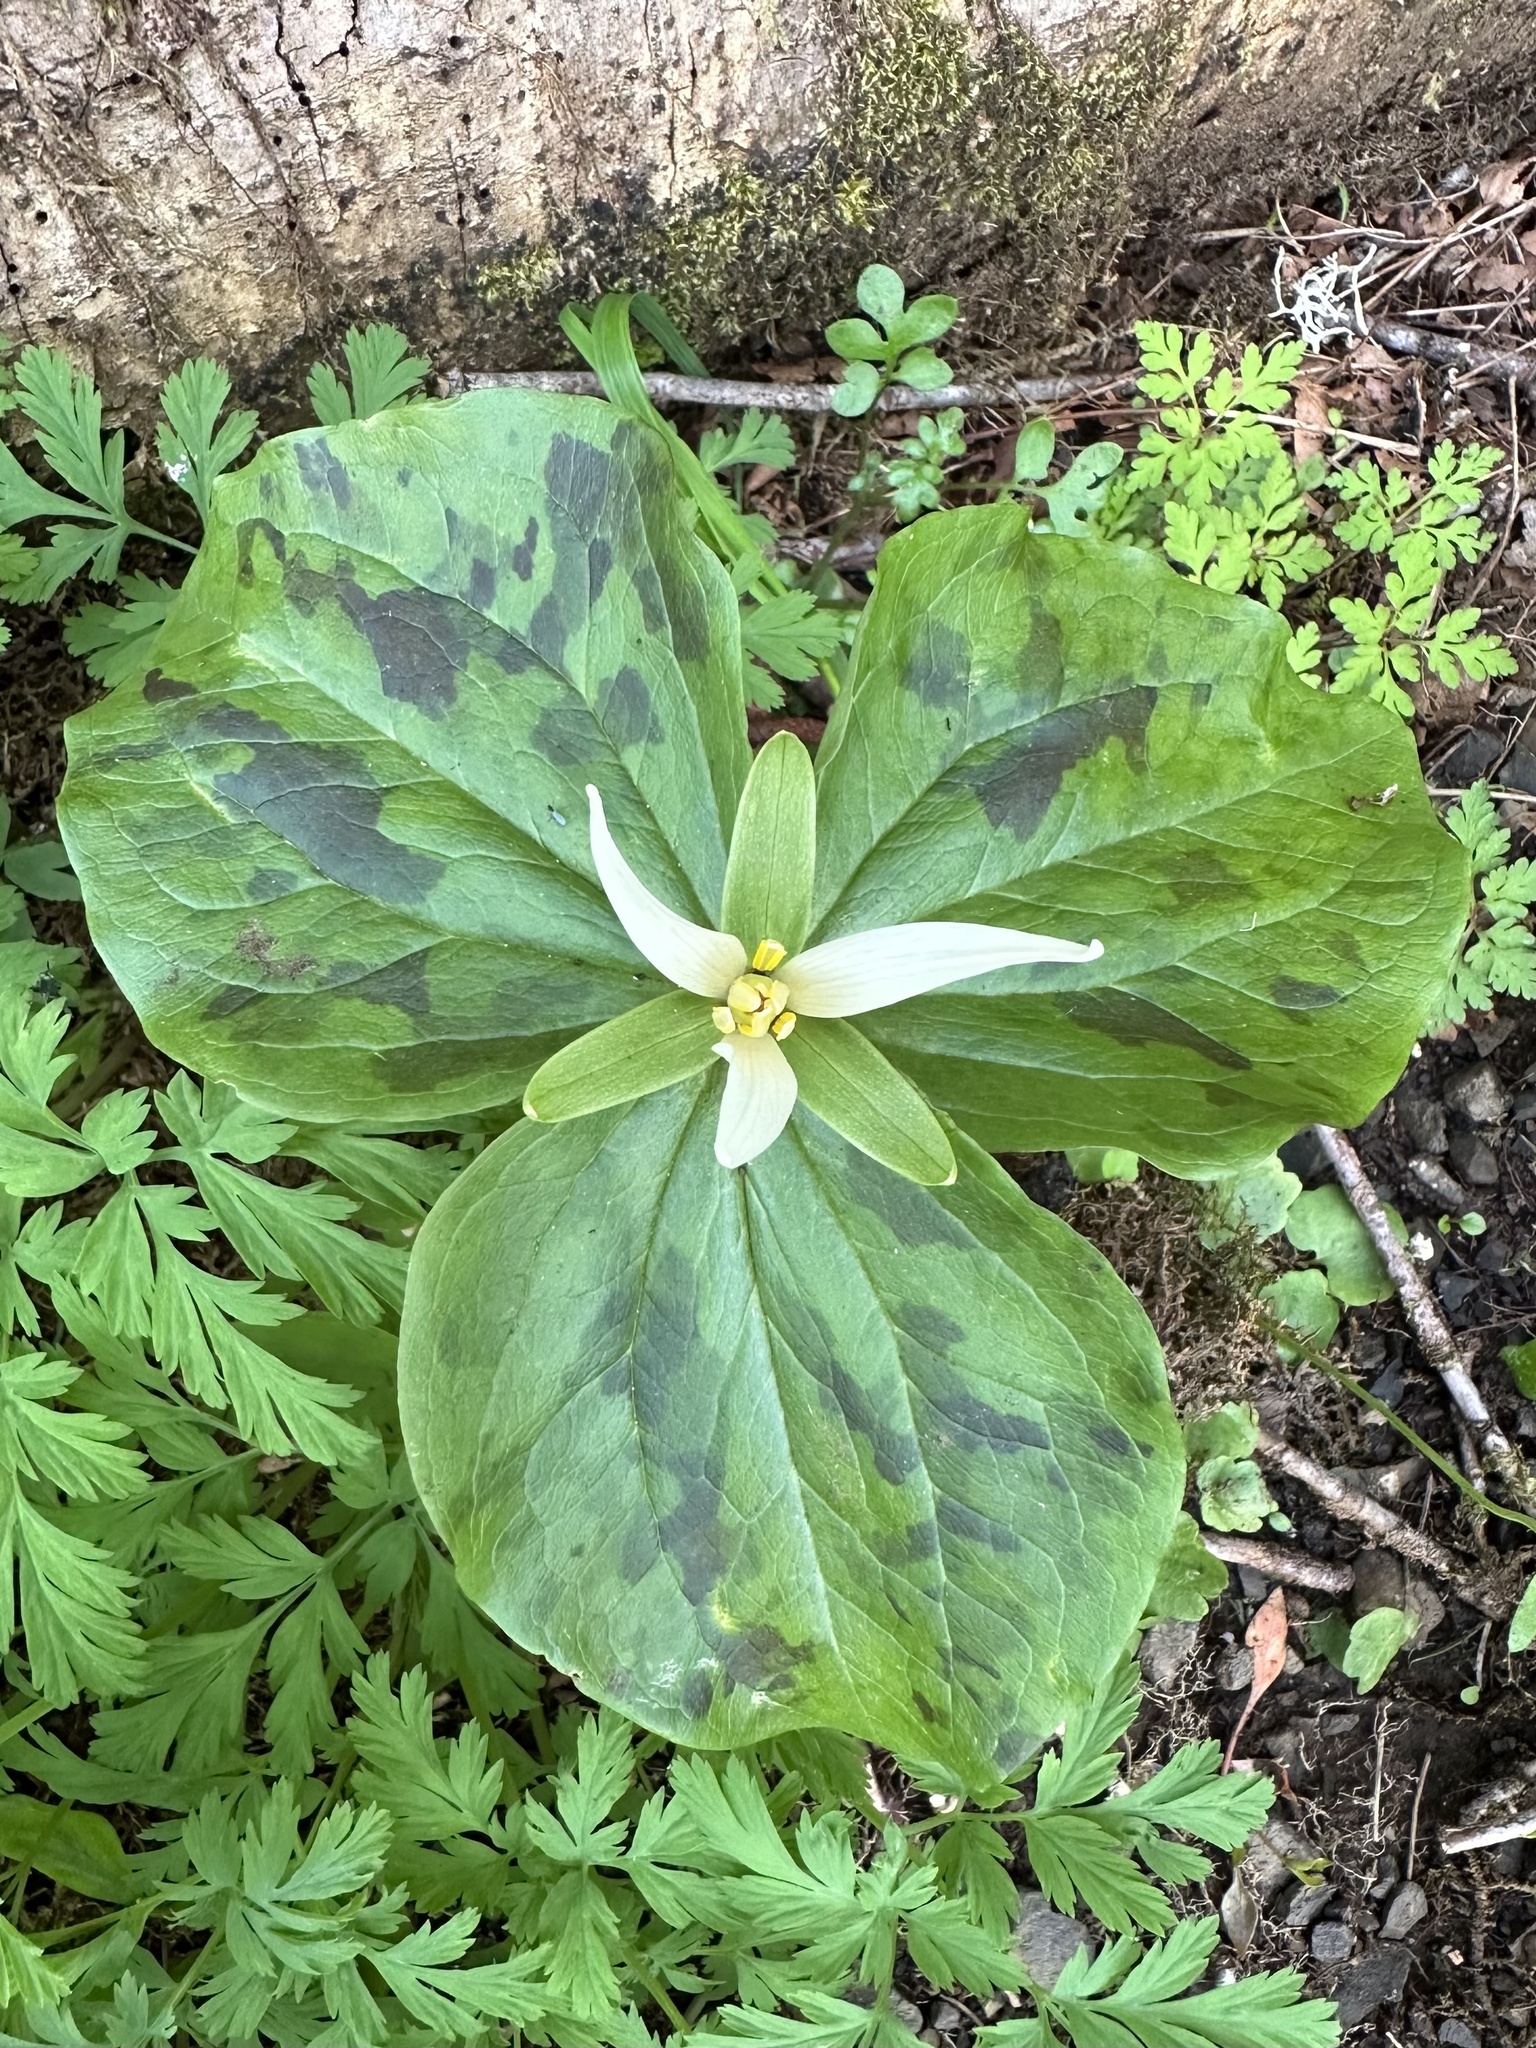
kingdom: Plantae
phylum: Tracheophyta
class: Liliopsida
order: Liliales
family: Melanthiaceae
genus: Trillium
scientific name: Trillium albidum
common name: Freeman's trillium
